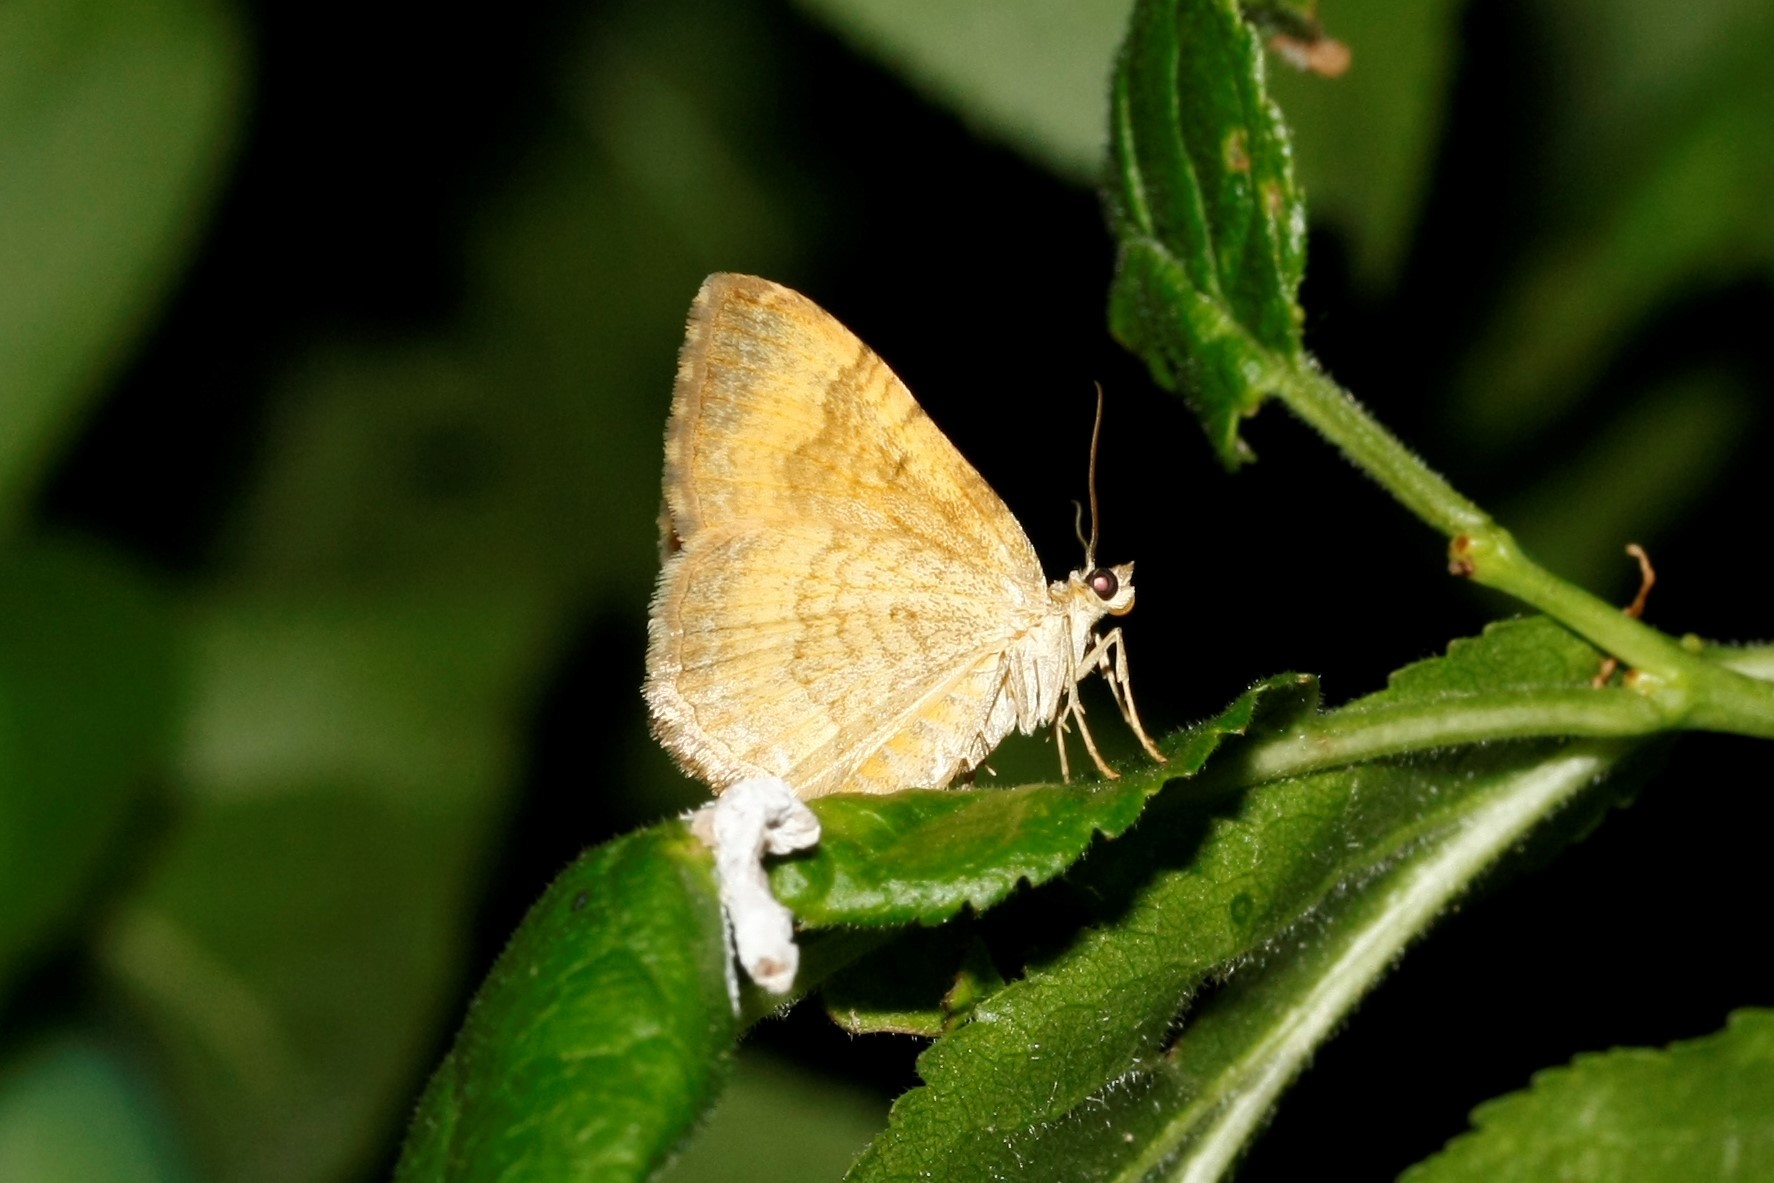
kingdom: Animalia
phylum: Arthropoda
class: Insecta
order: Lepidoptera
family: Geometridae
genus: Camptogramma
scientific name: Camptogramma bilineata
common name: Yellow shell
